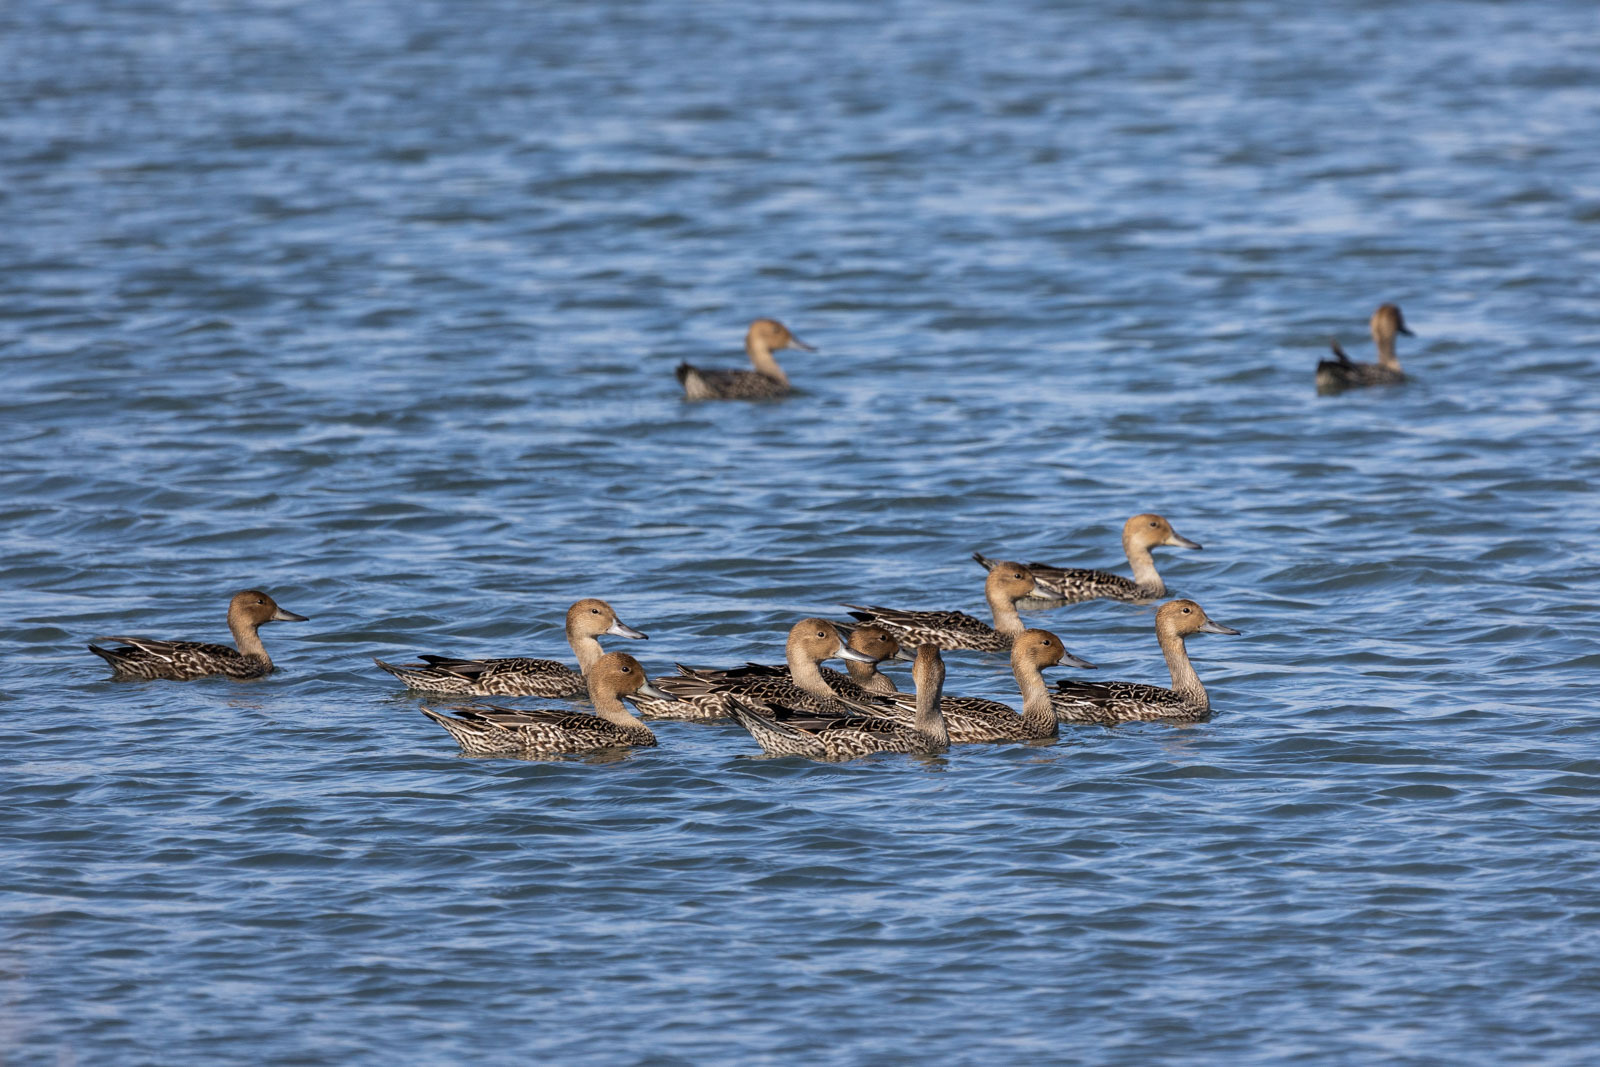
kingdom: Animalia
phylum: Chordata
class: Aves
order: Anseriformes
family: Anatidae
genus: Anas
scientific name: Anas acuta
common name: Northern pintail
